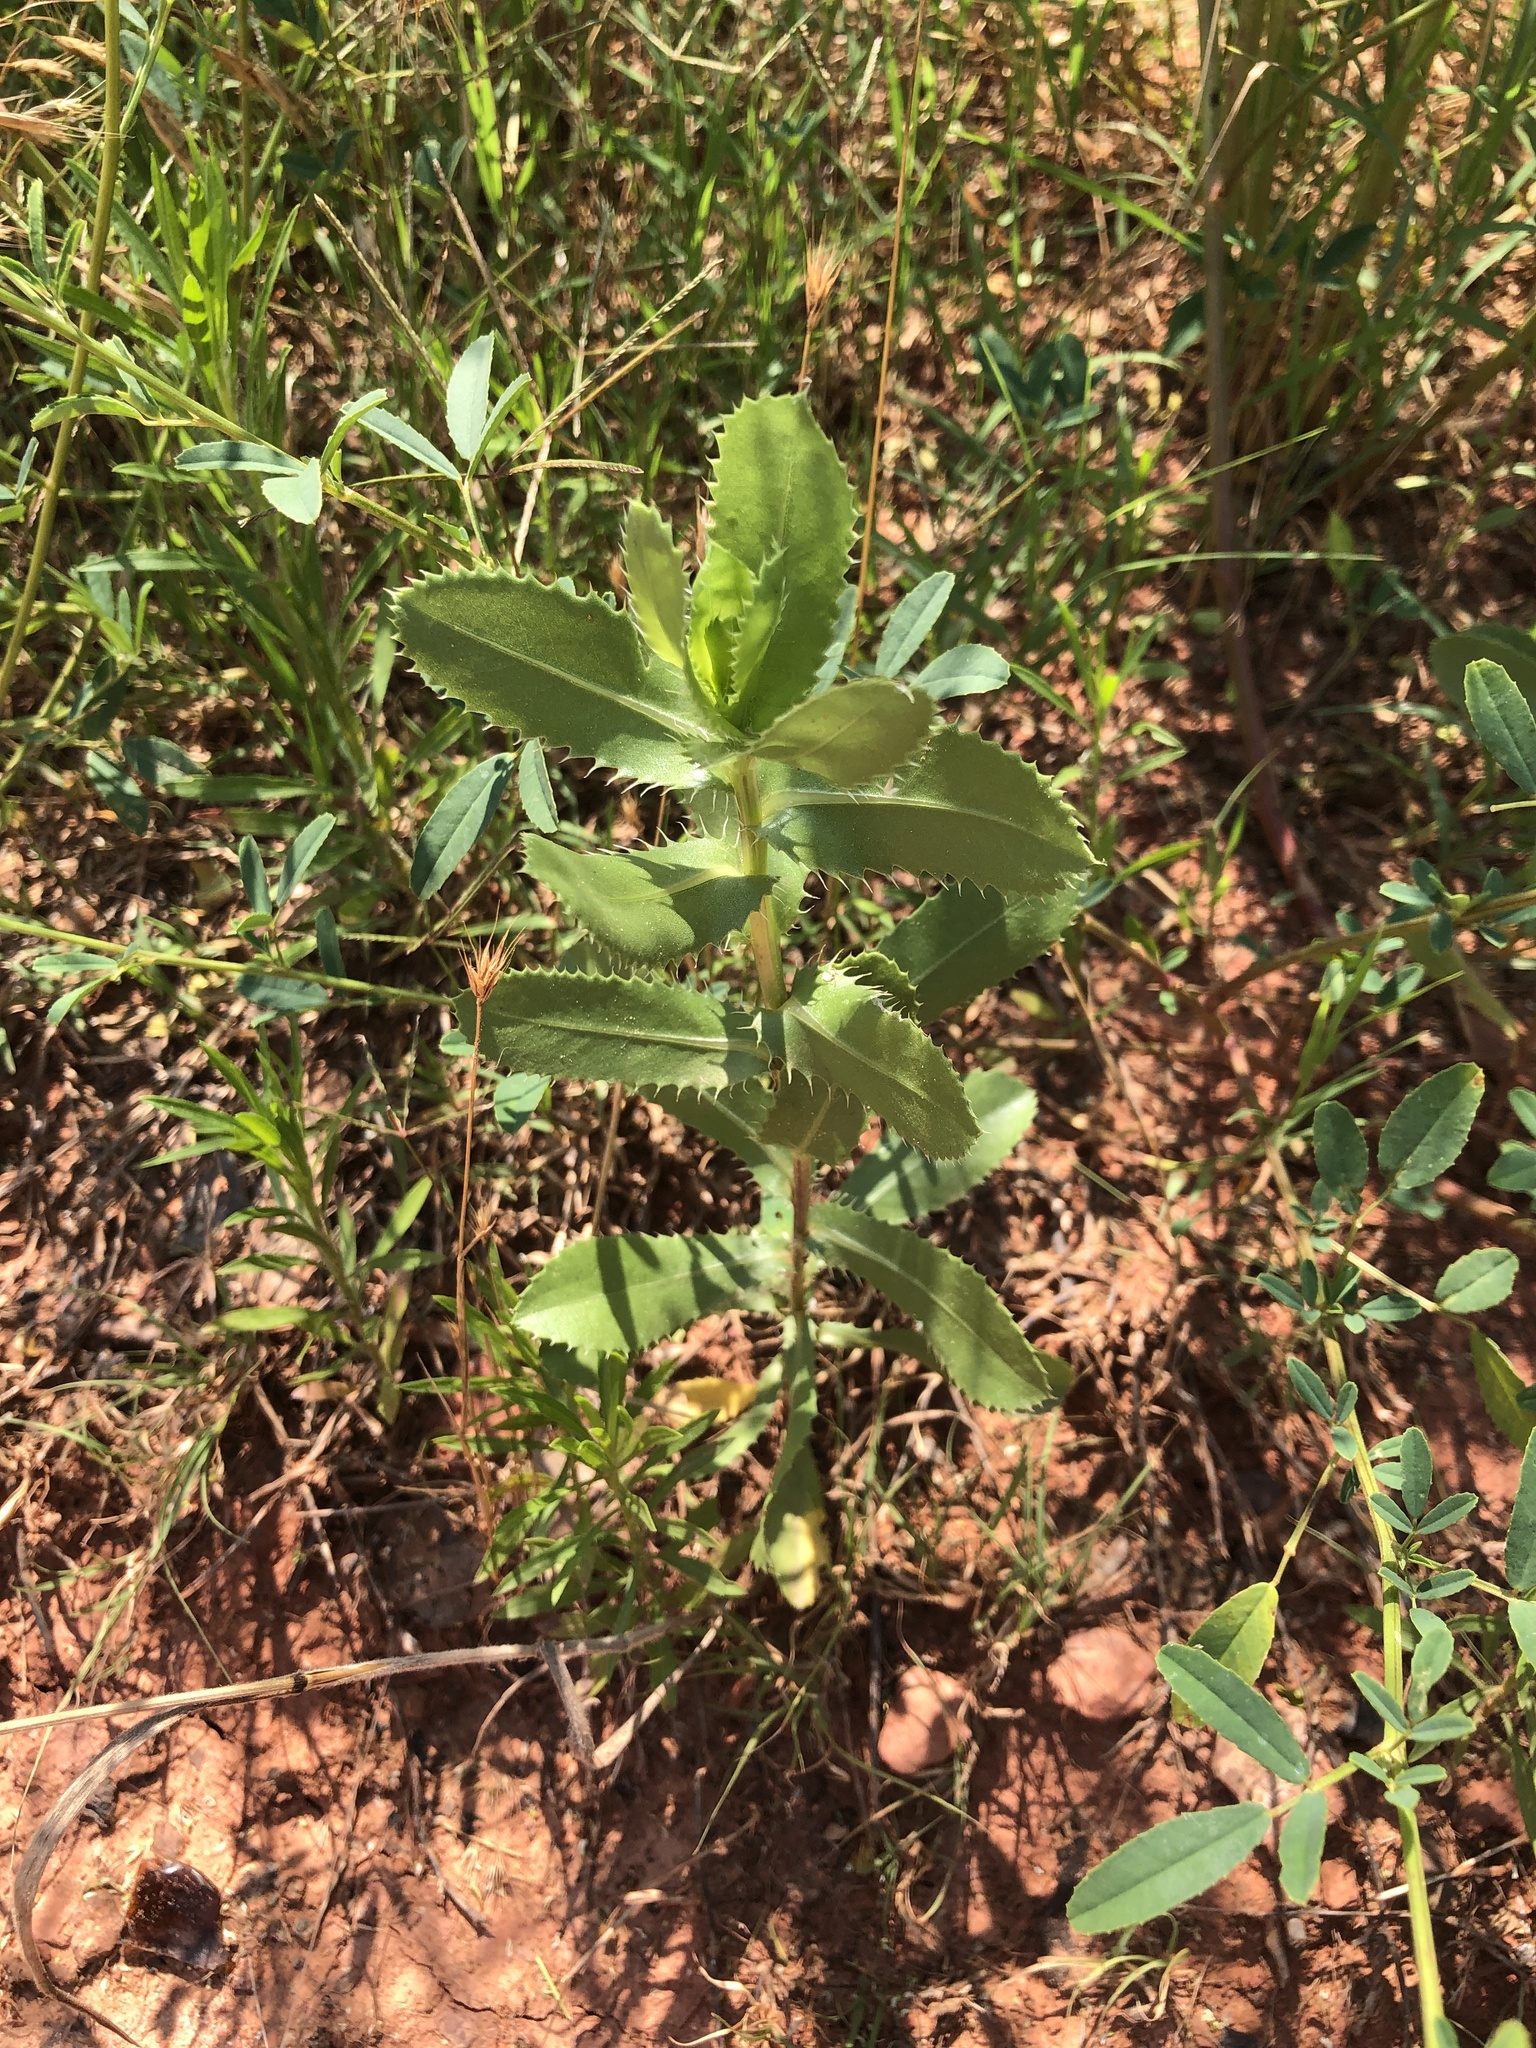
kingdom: Plantae
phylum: Tracheophyta
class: Magnoliopsida
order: Asterales
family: Asteraceae
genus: Grindelia
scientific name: Grindelia ciliata
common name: Goldenweed
